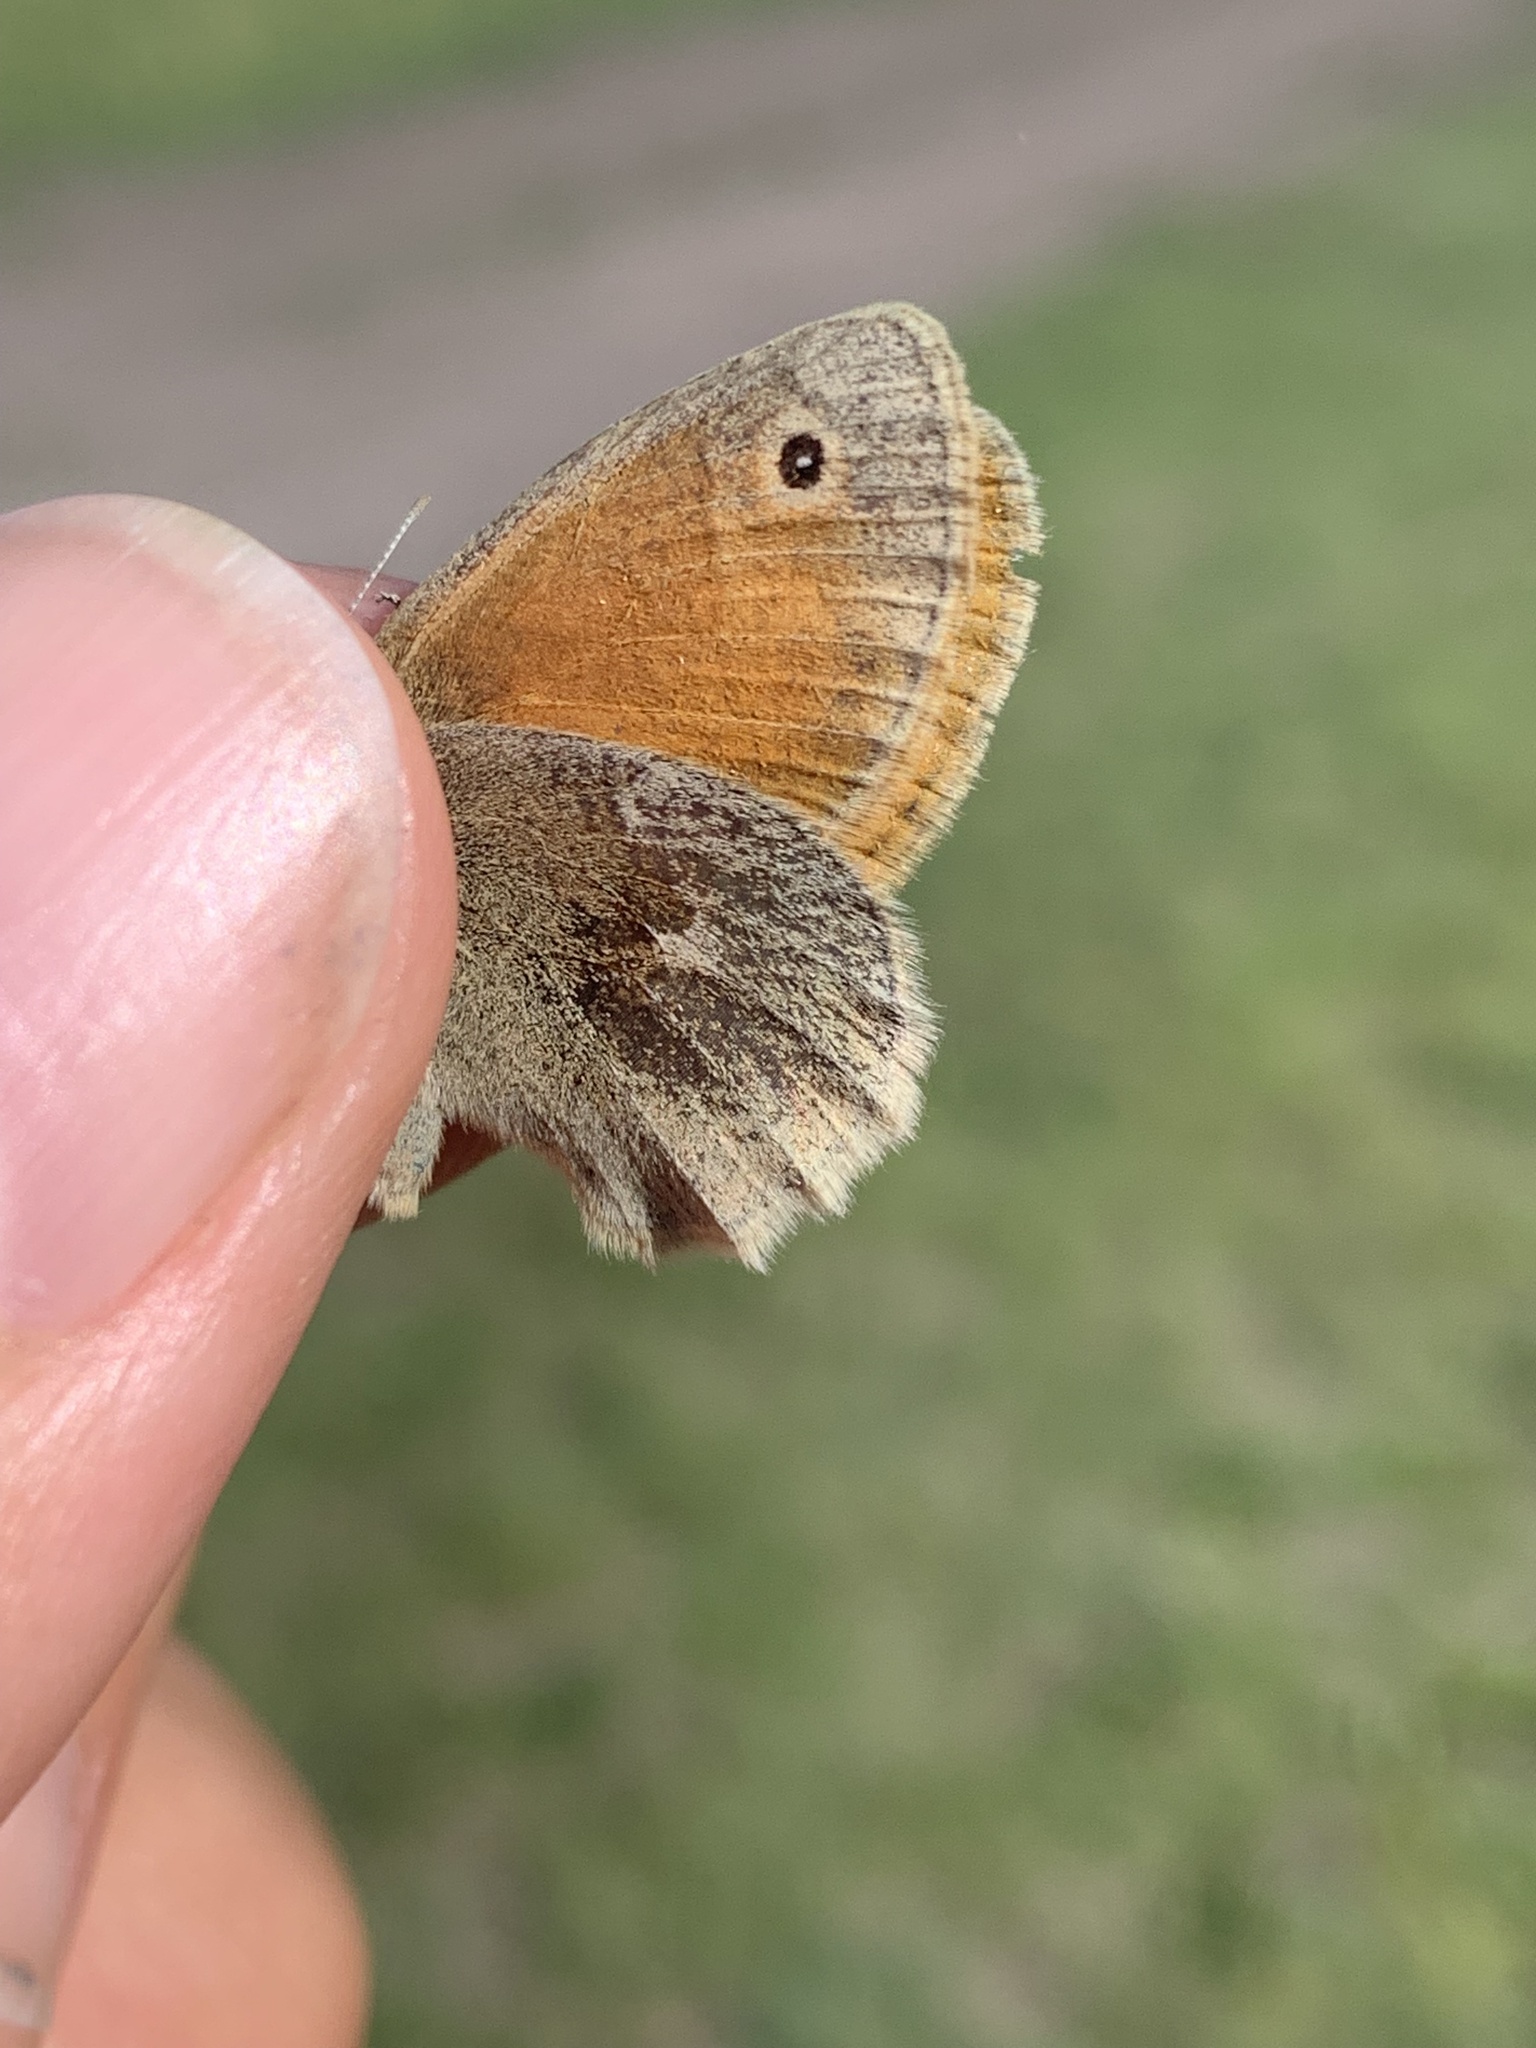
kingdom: Animalia
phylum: Arthropoda
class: Insecta
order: Lepidoptera
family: Nymphalidae
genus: Coenonympha
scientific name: Coenonympha california
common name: Common ringlet
